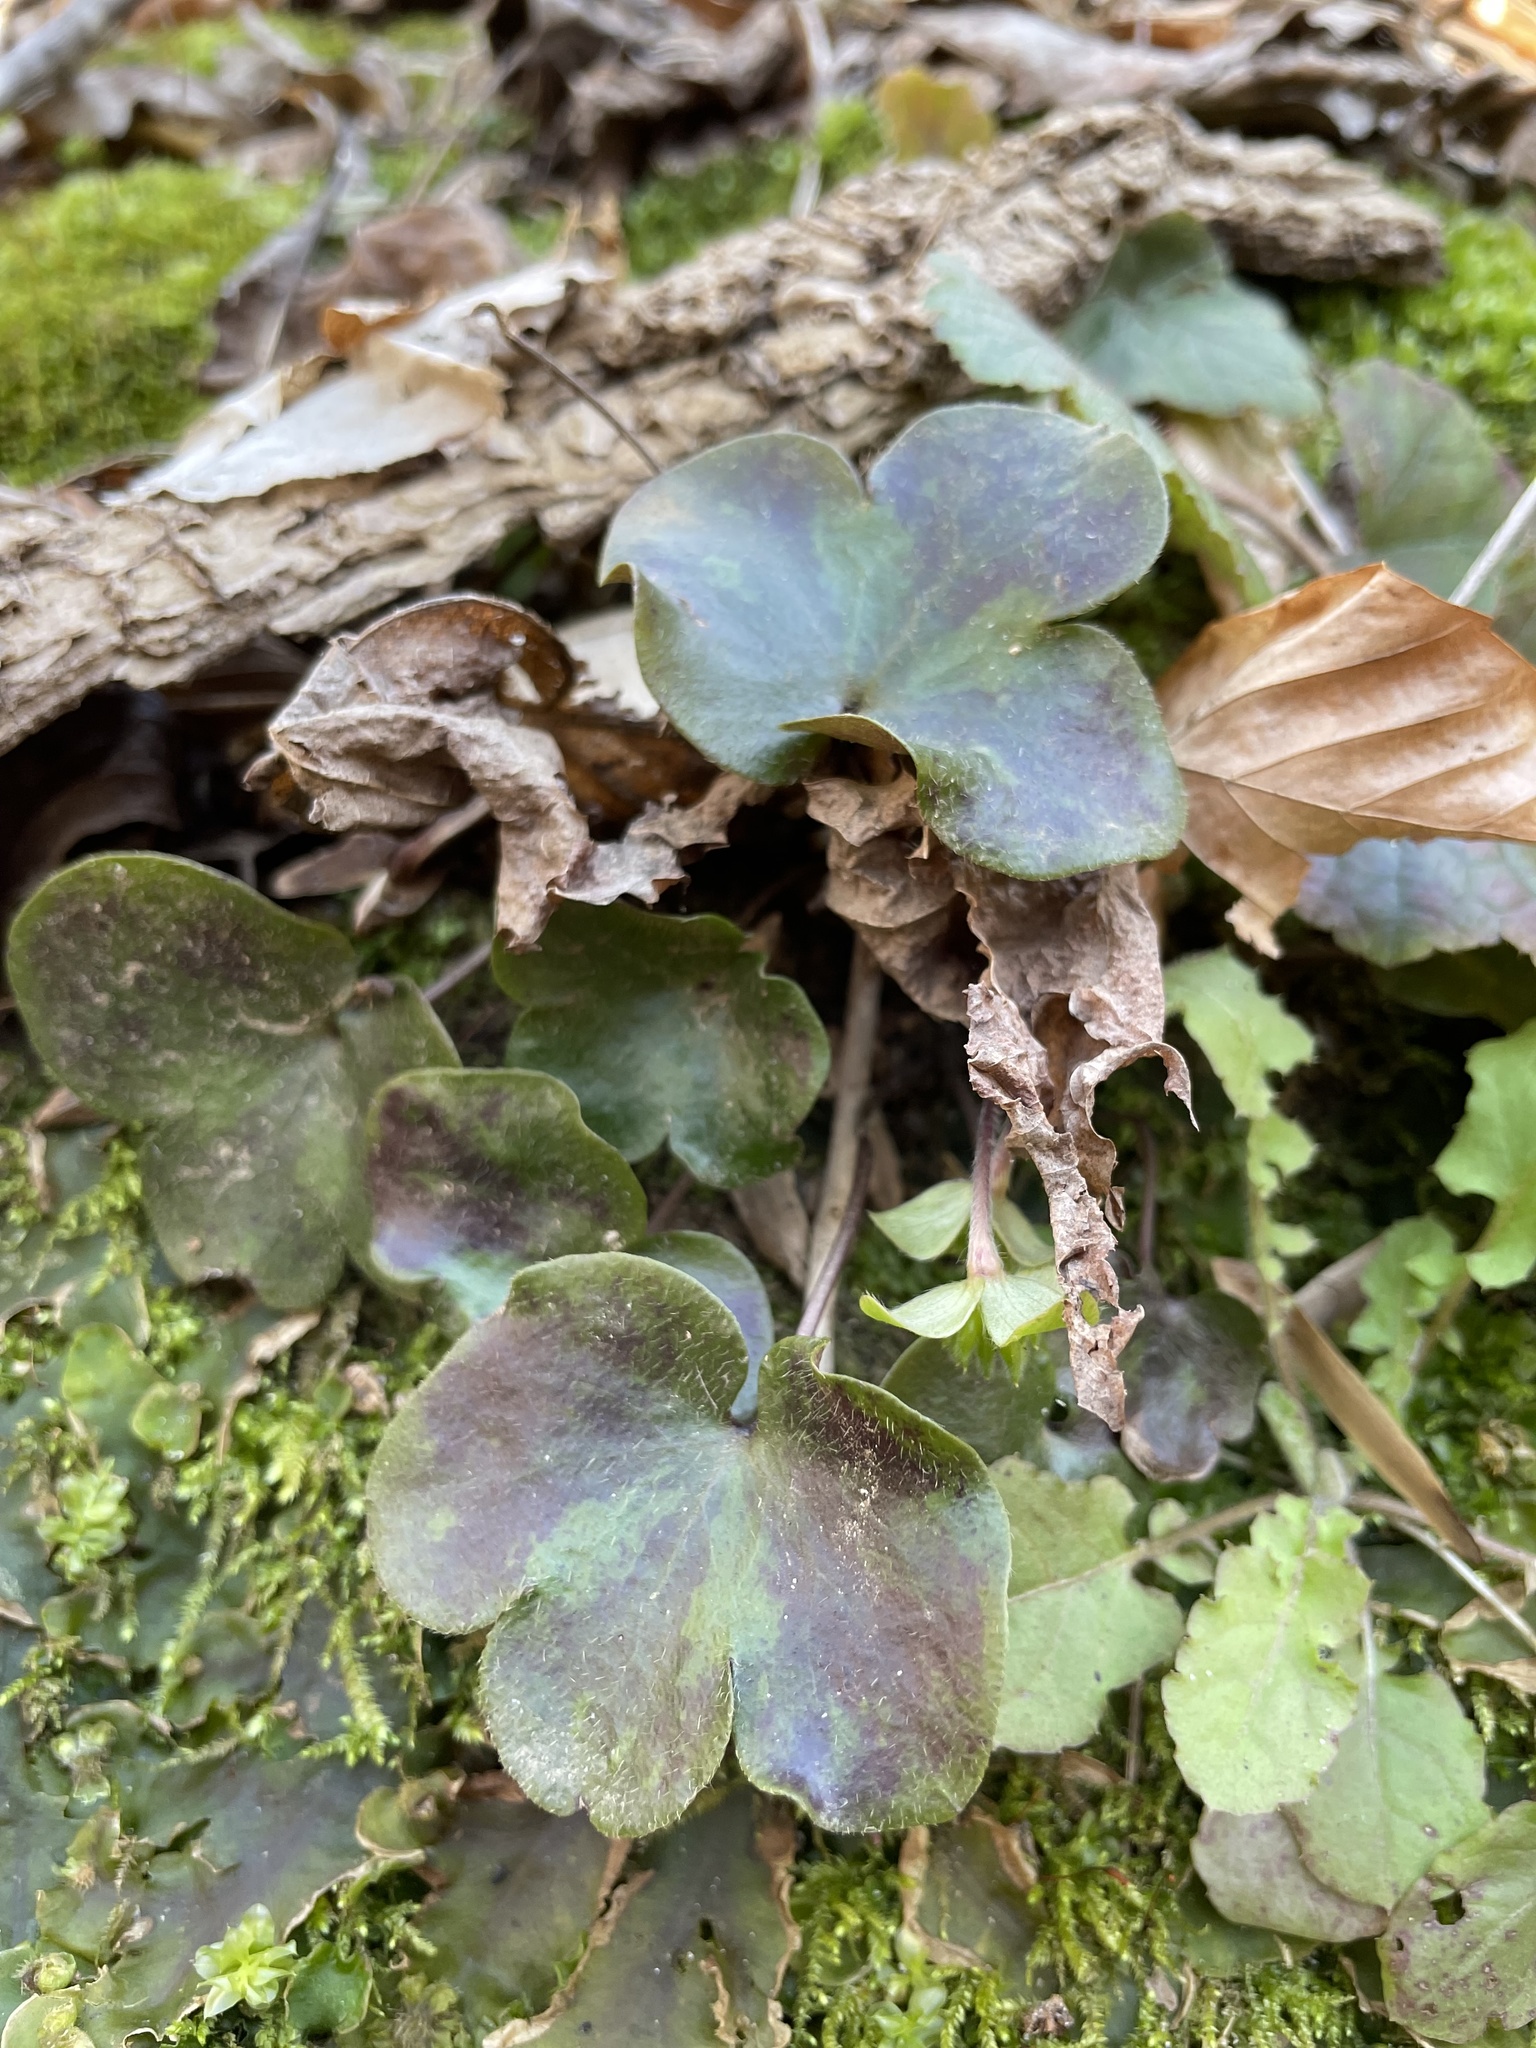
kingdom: Plantae
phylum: Tracheophyta
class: Magnoliopsida
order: Ranunculales
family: Ranunculaceae
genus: Hepatica
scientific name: Hepatica americana
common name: American hepatica
